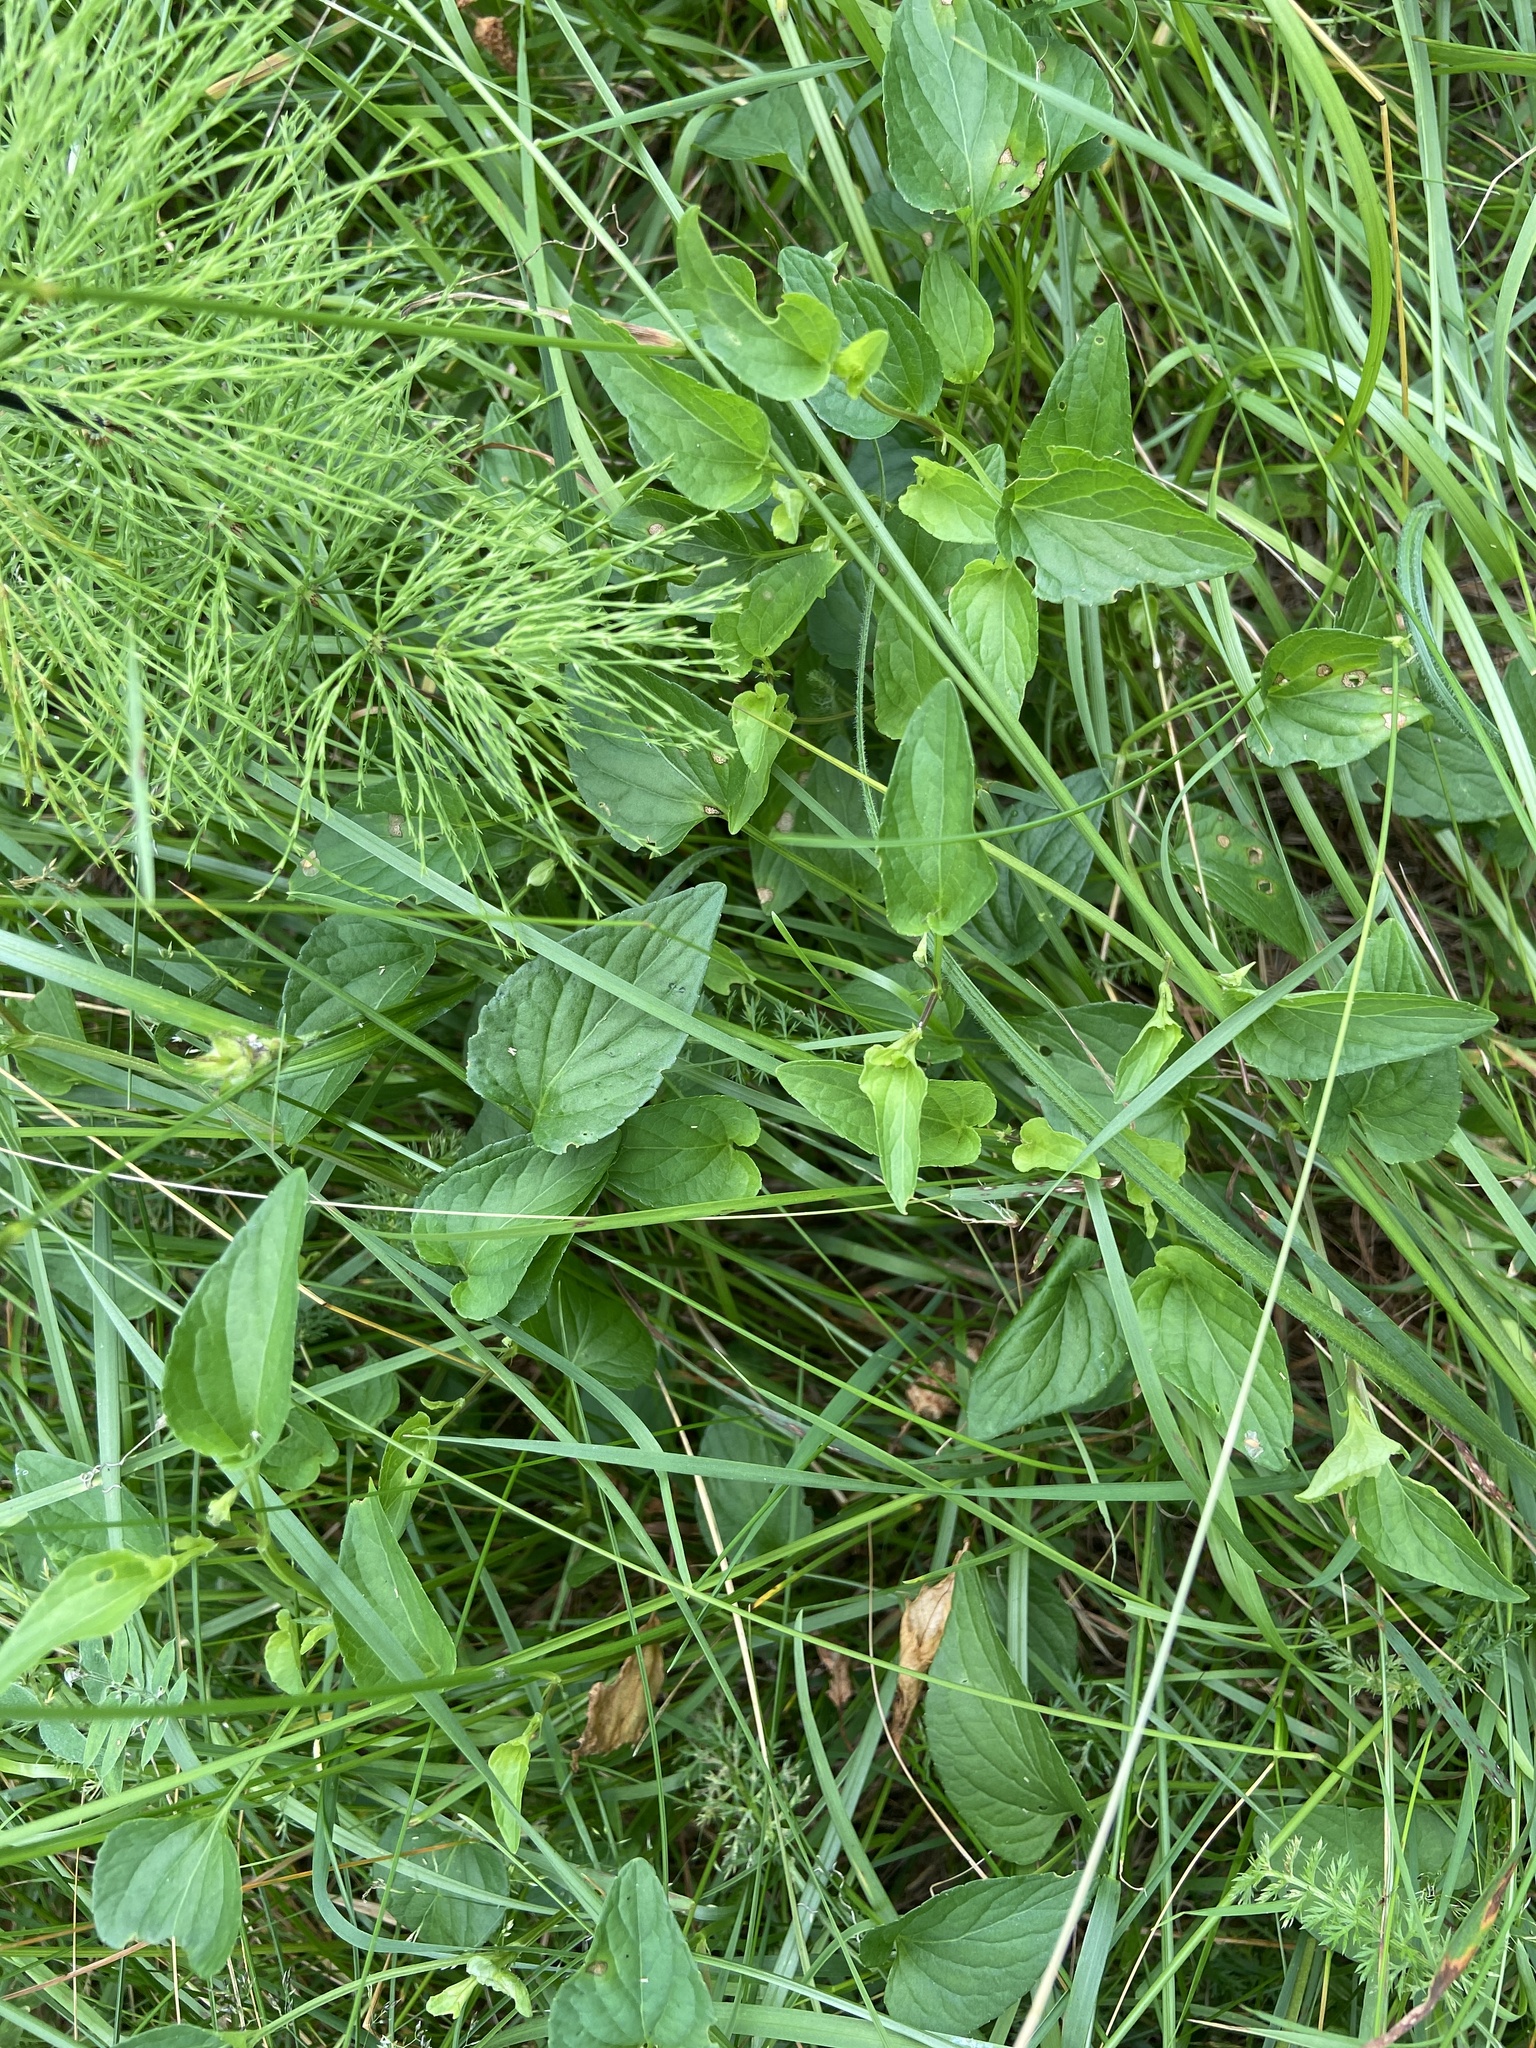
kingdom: Plantae
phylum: Tracheophyta
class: Magnoliopsida
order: Malpighiales
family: Violaceae
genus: Viola
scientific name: Viola canina
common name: Heath dog-violet
